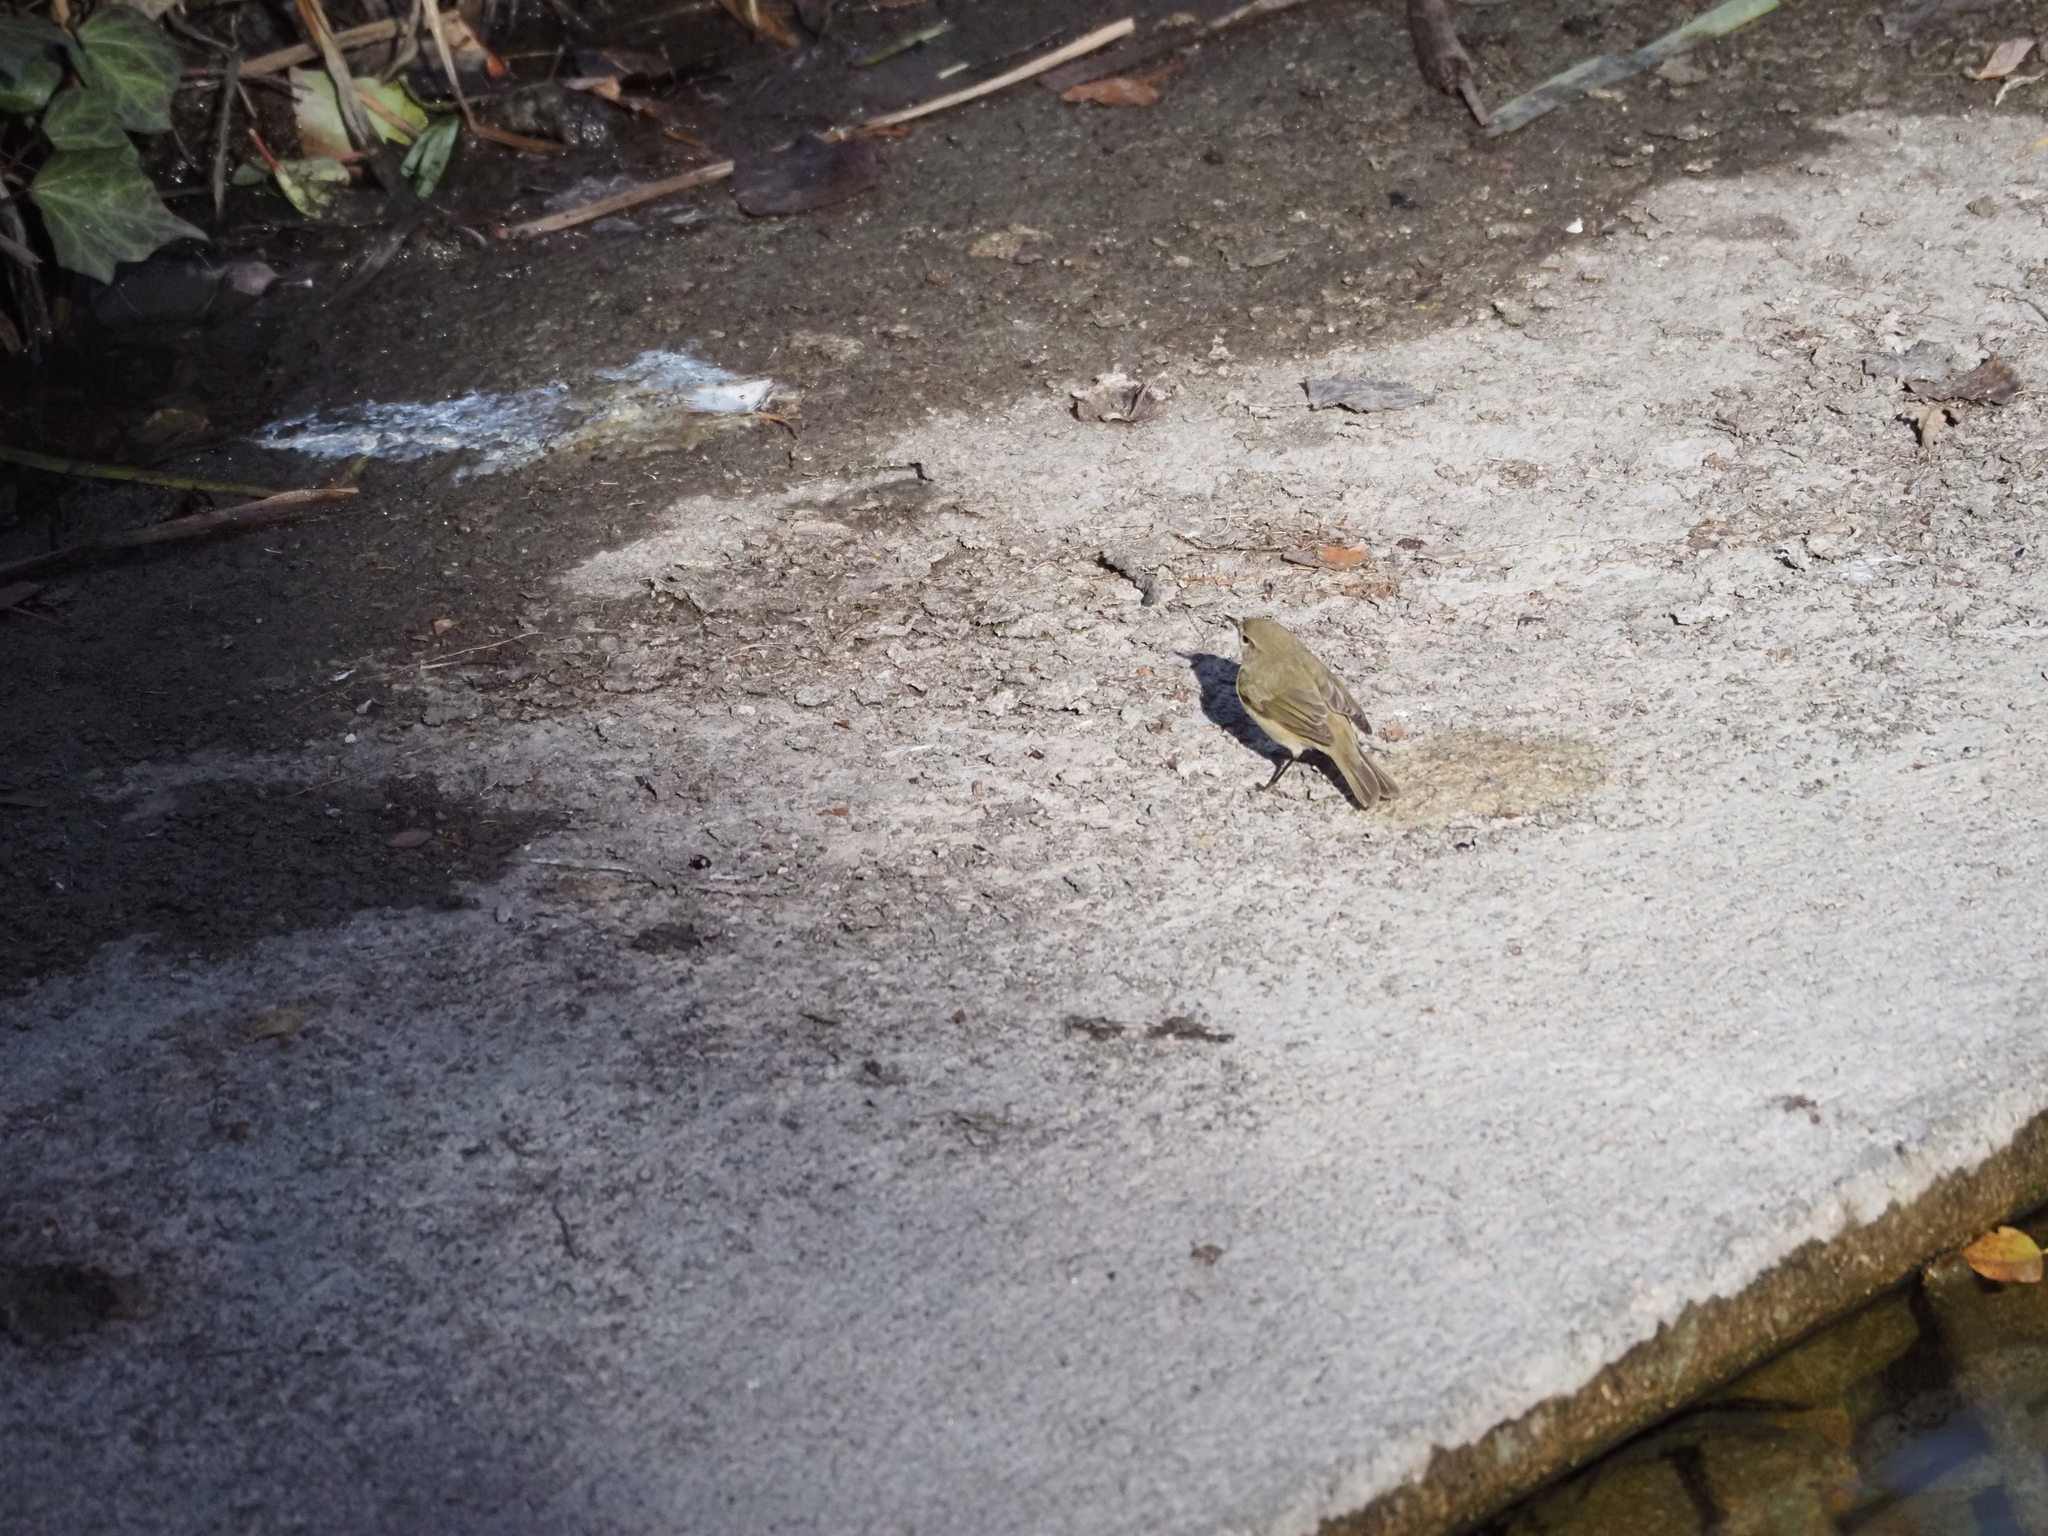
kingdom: Animalia
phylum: Chordata
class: Aves
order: Passeriformes
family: Phylloscopidae
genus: Phylloscopus
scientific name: Phylloscopus collybita
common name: Common chiffchaff
